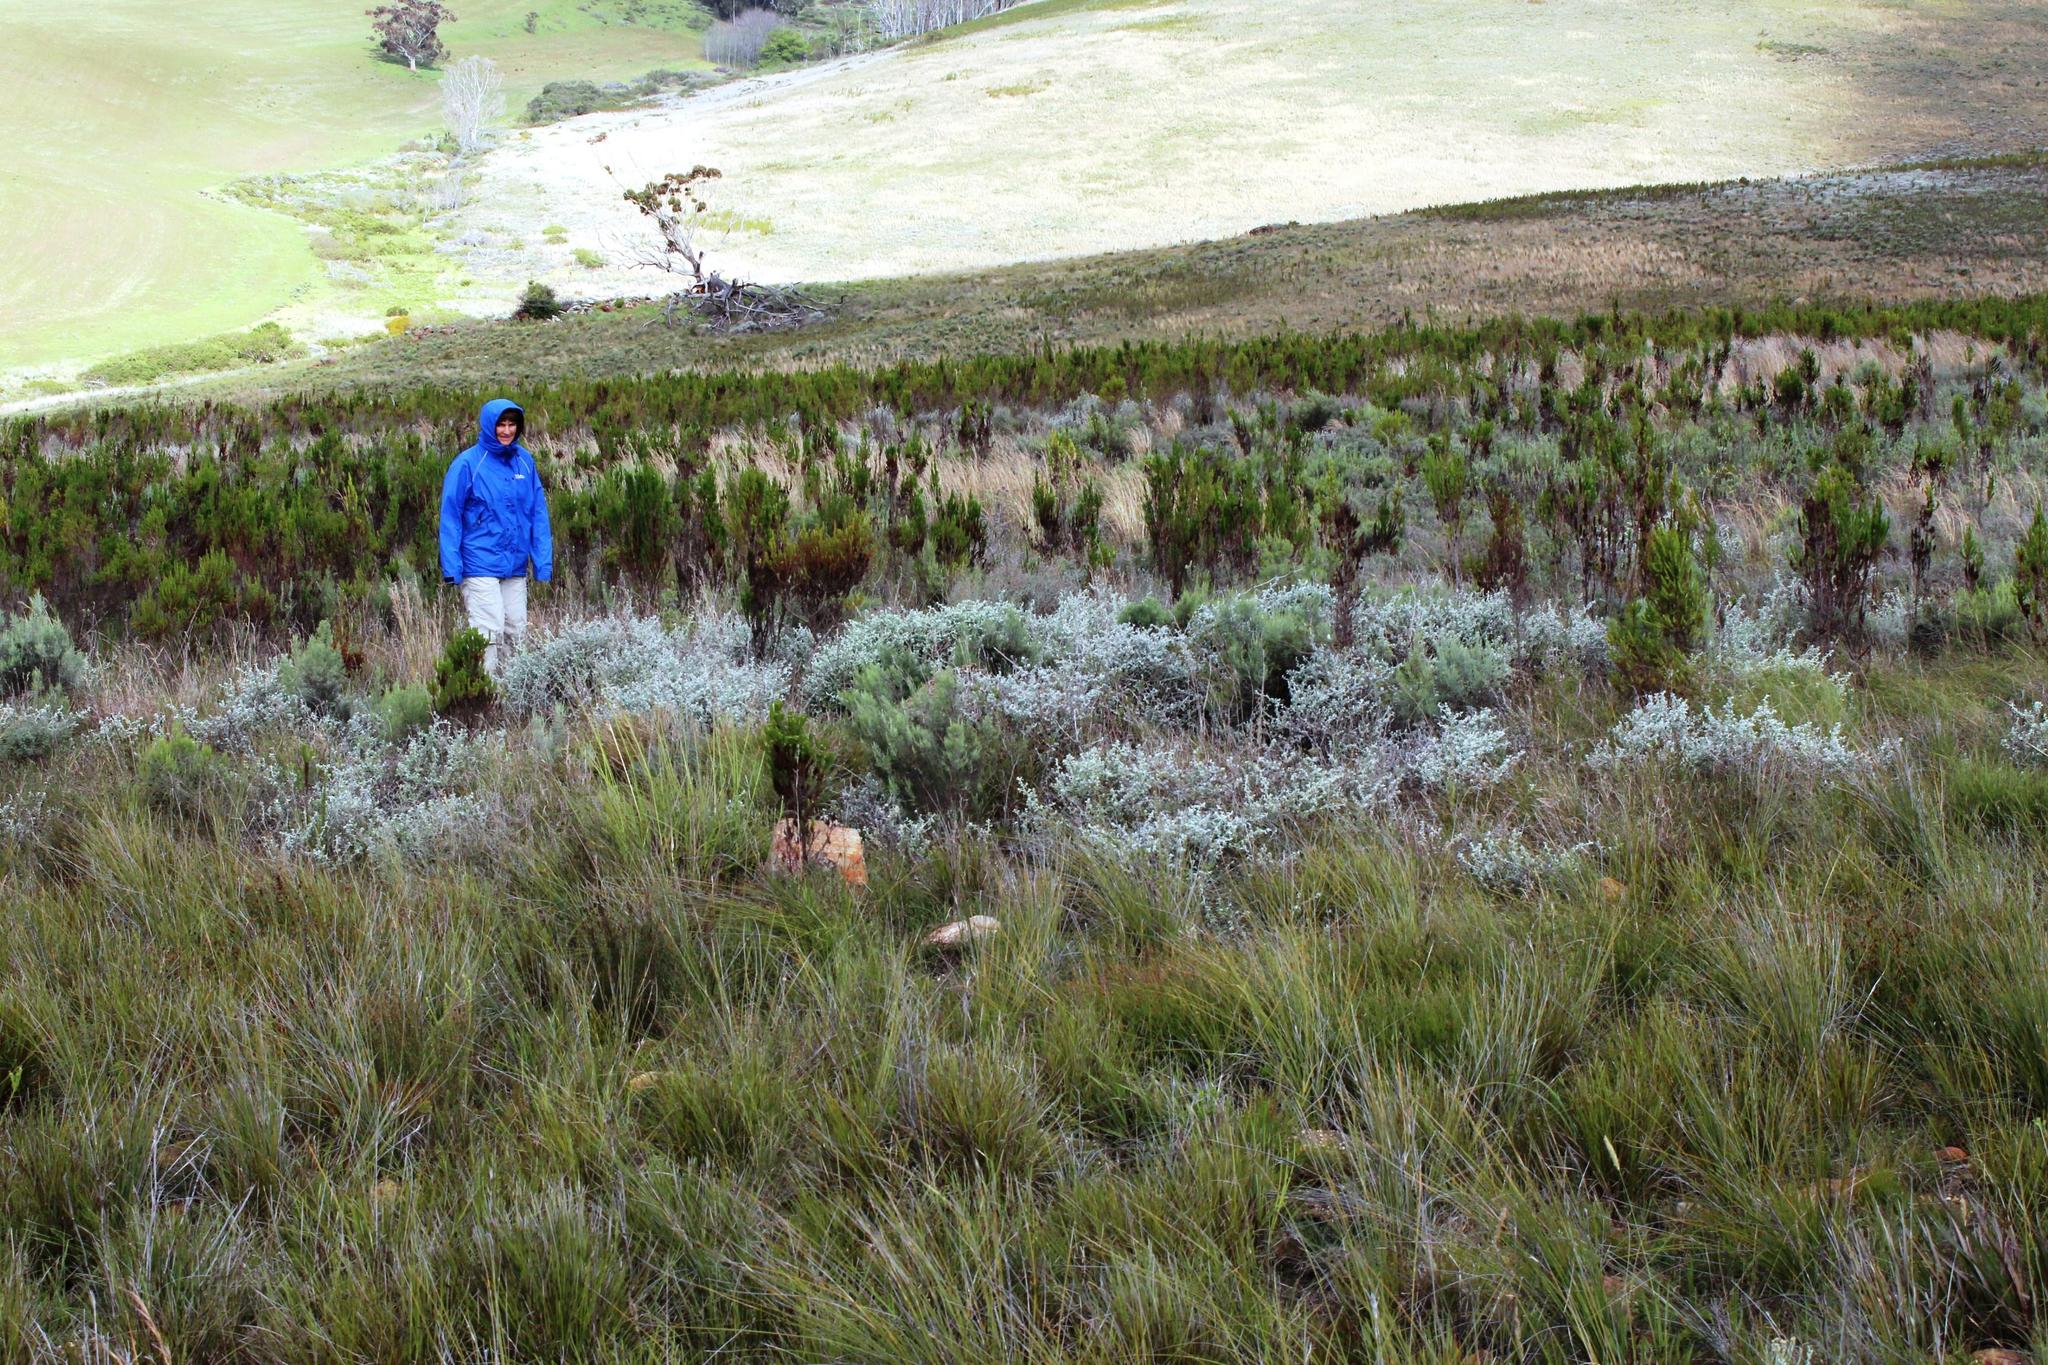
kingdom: Plantae
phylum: Tracheophyta
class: Magnoliopsida
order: Asterales
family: Asteraceae
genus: Seriphium
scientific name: Seriphium plumosum
